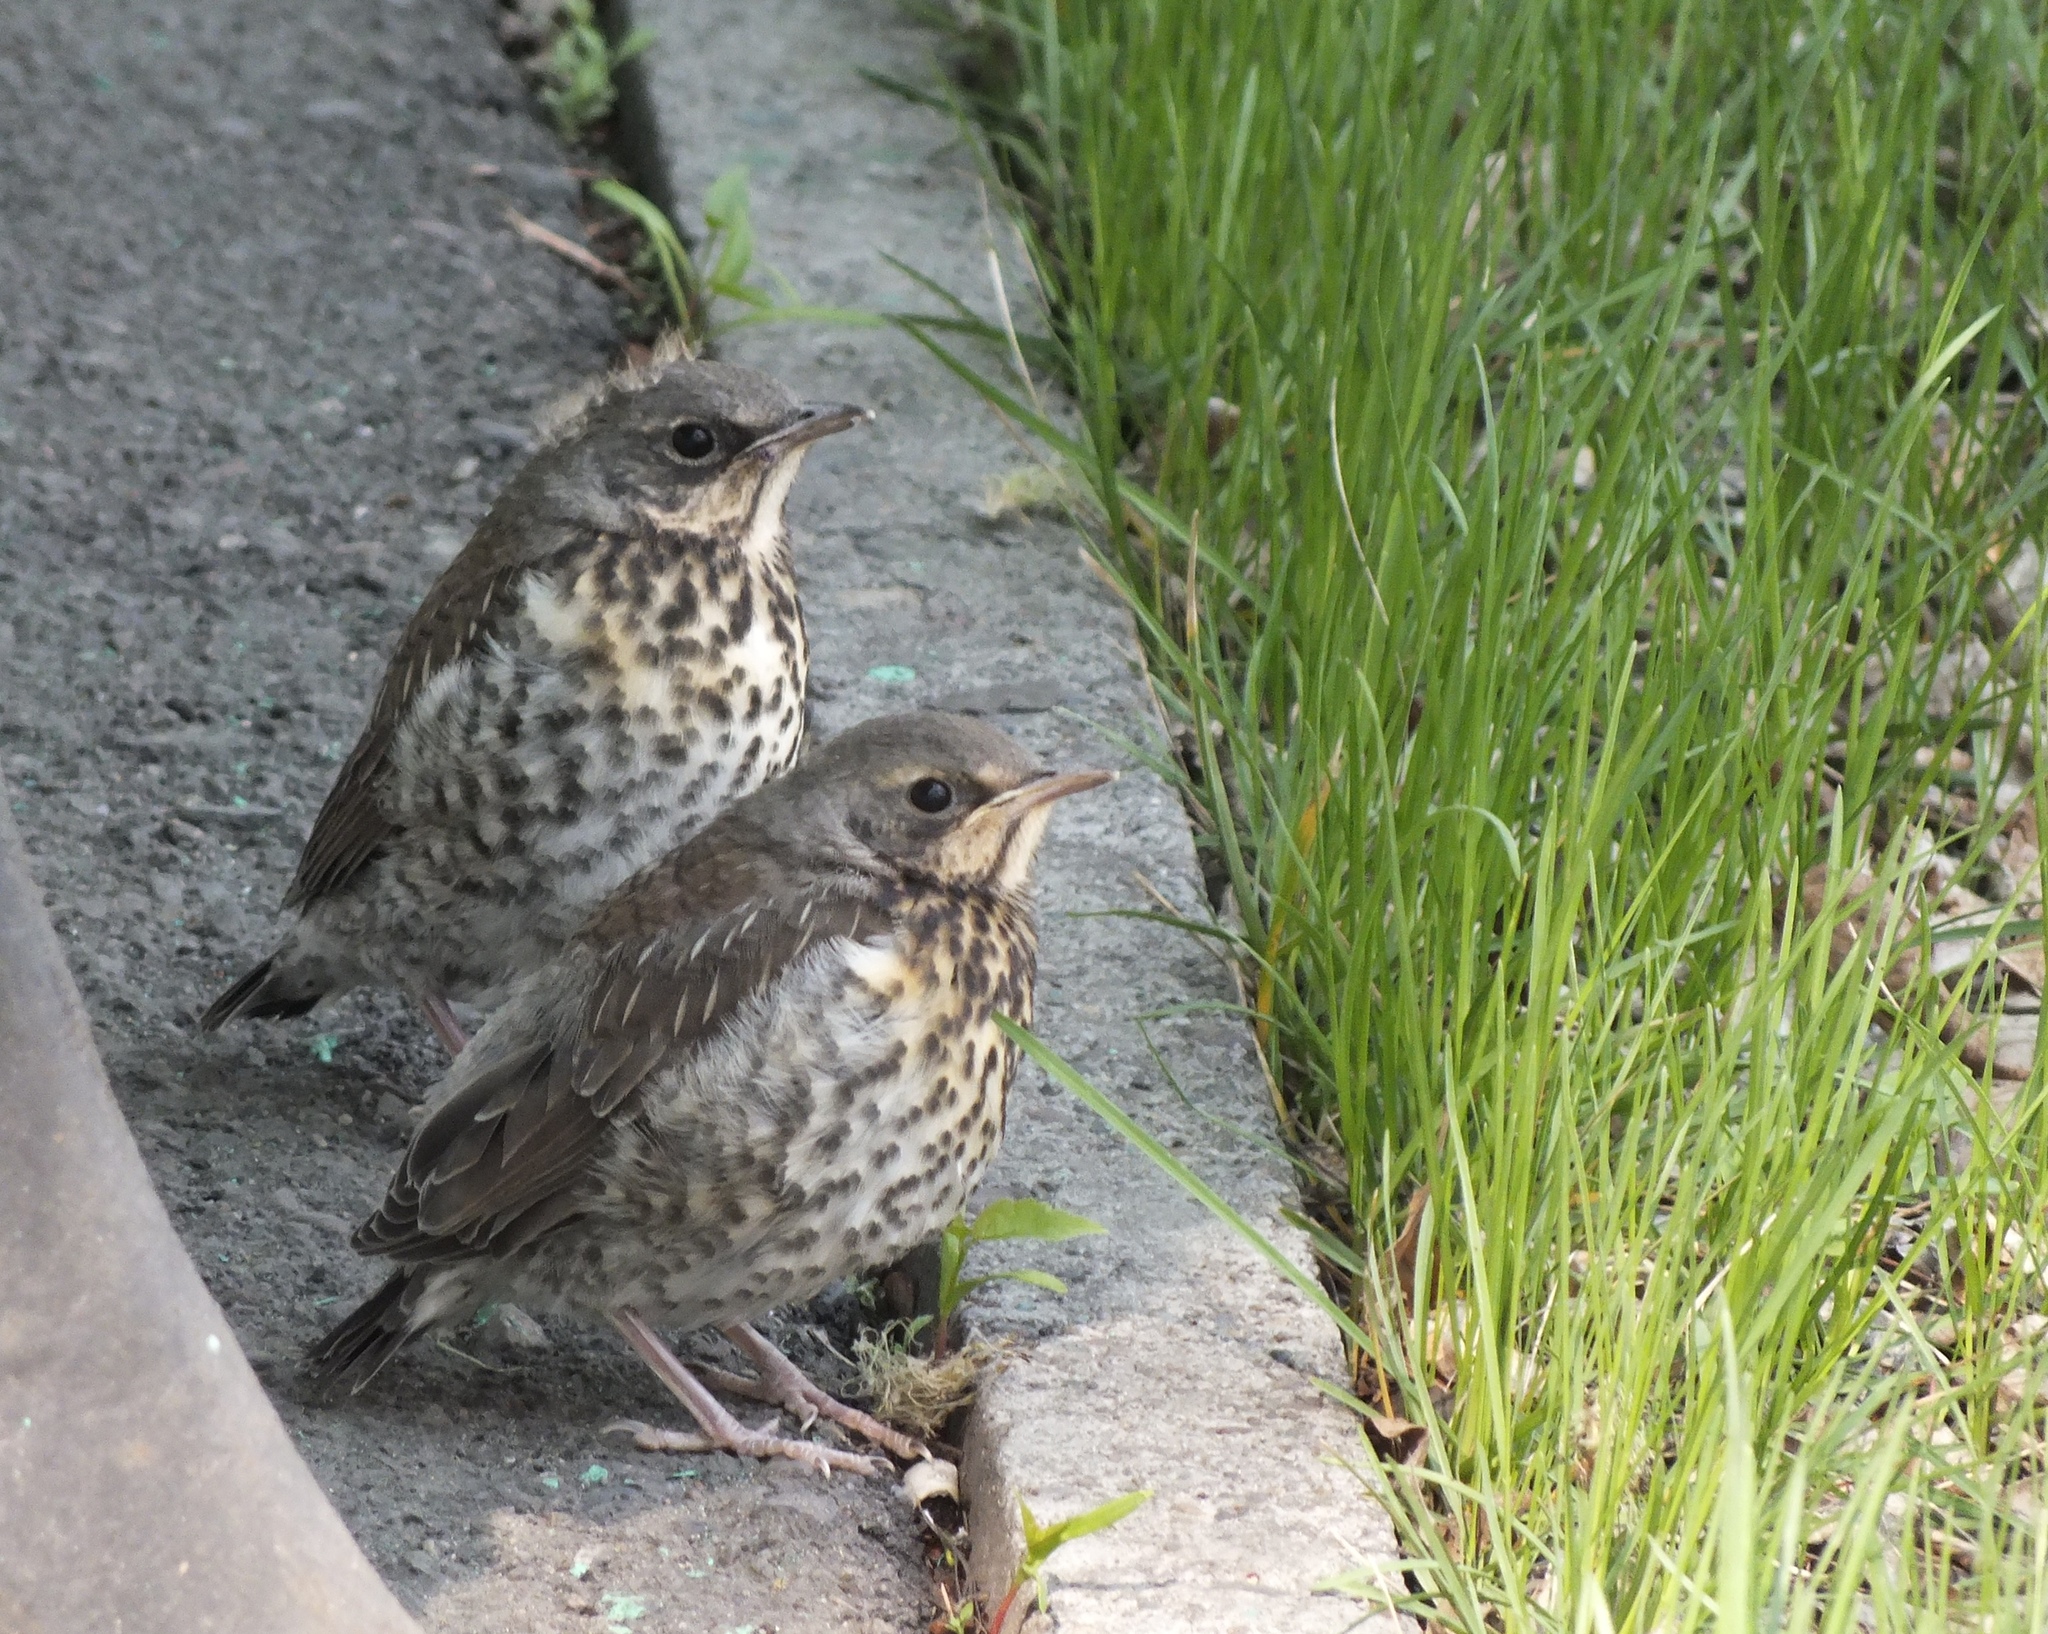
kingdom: Animalia
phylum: Chordata
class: Aves
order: Passeriformes
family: Turdidae
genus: Turdus
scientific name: Turdus pilaris
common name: Fieldfare
